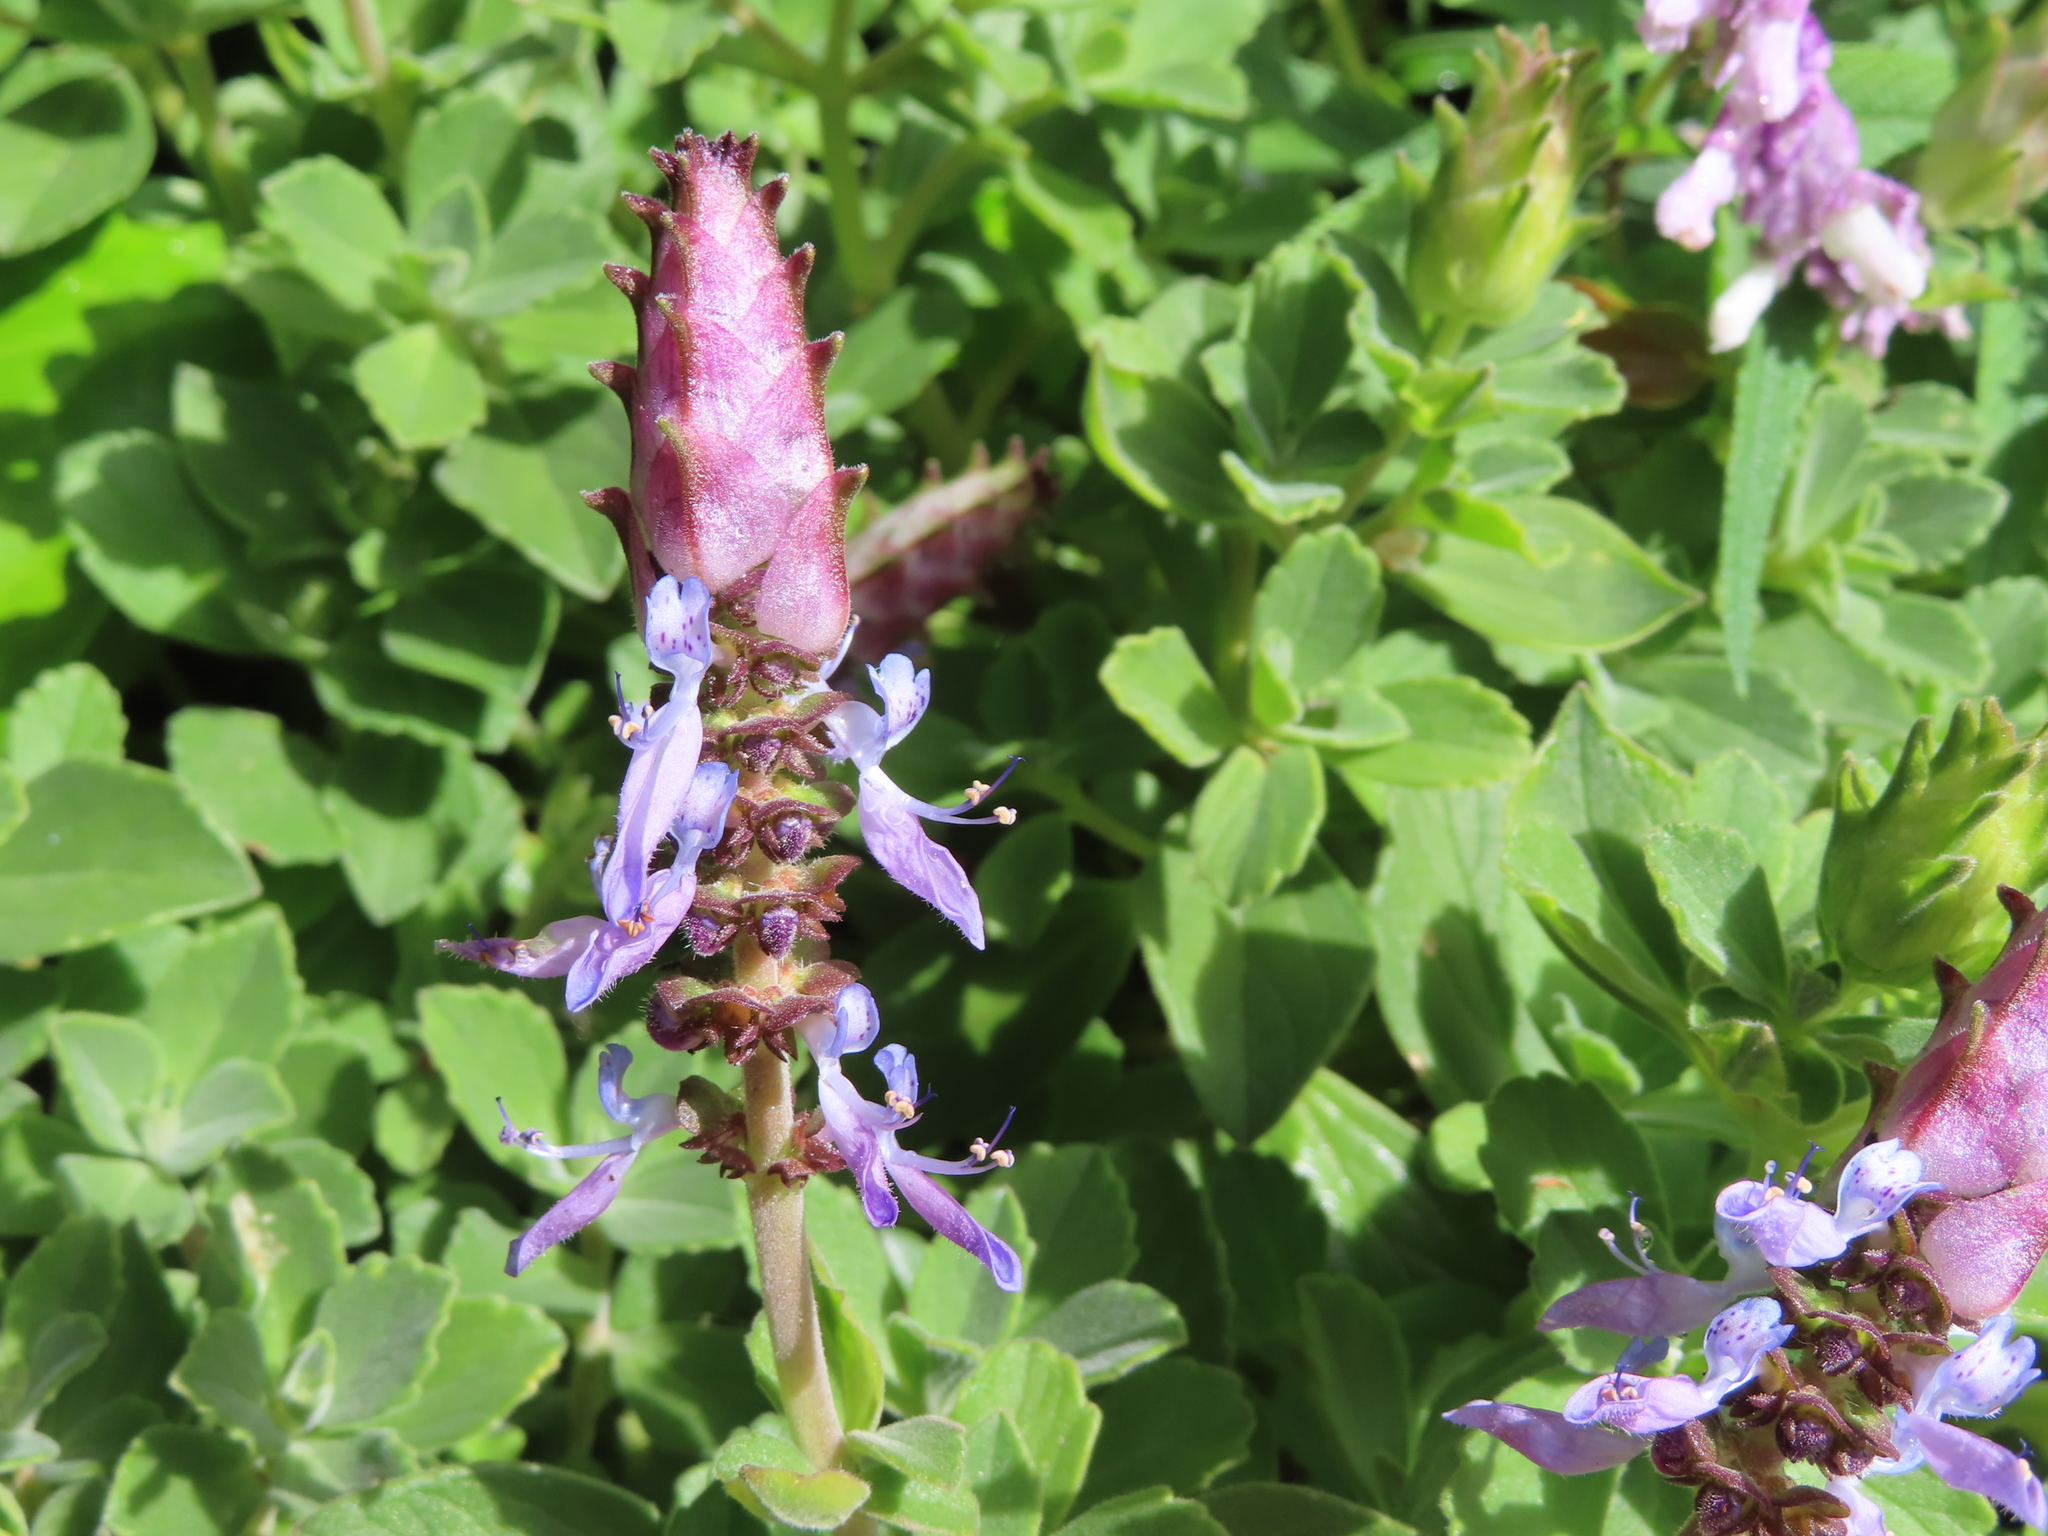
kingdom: Plantae
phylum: Tracheophyta
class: Magnoliopsida
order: Lamiales
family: Lamiaceae
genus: Coleus
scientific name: Coleus neochilus
